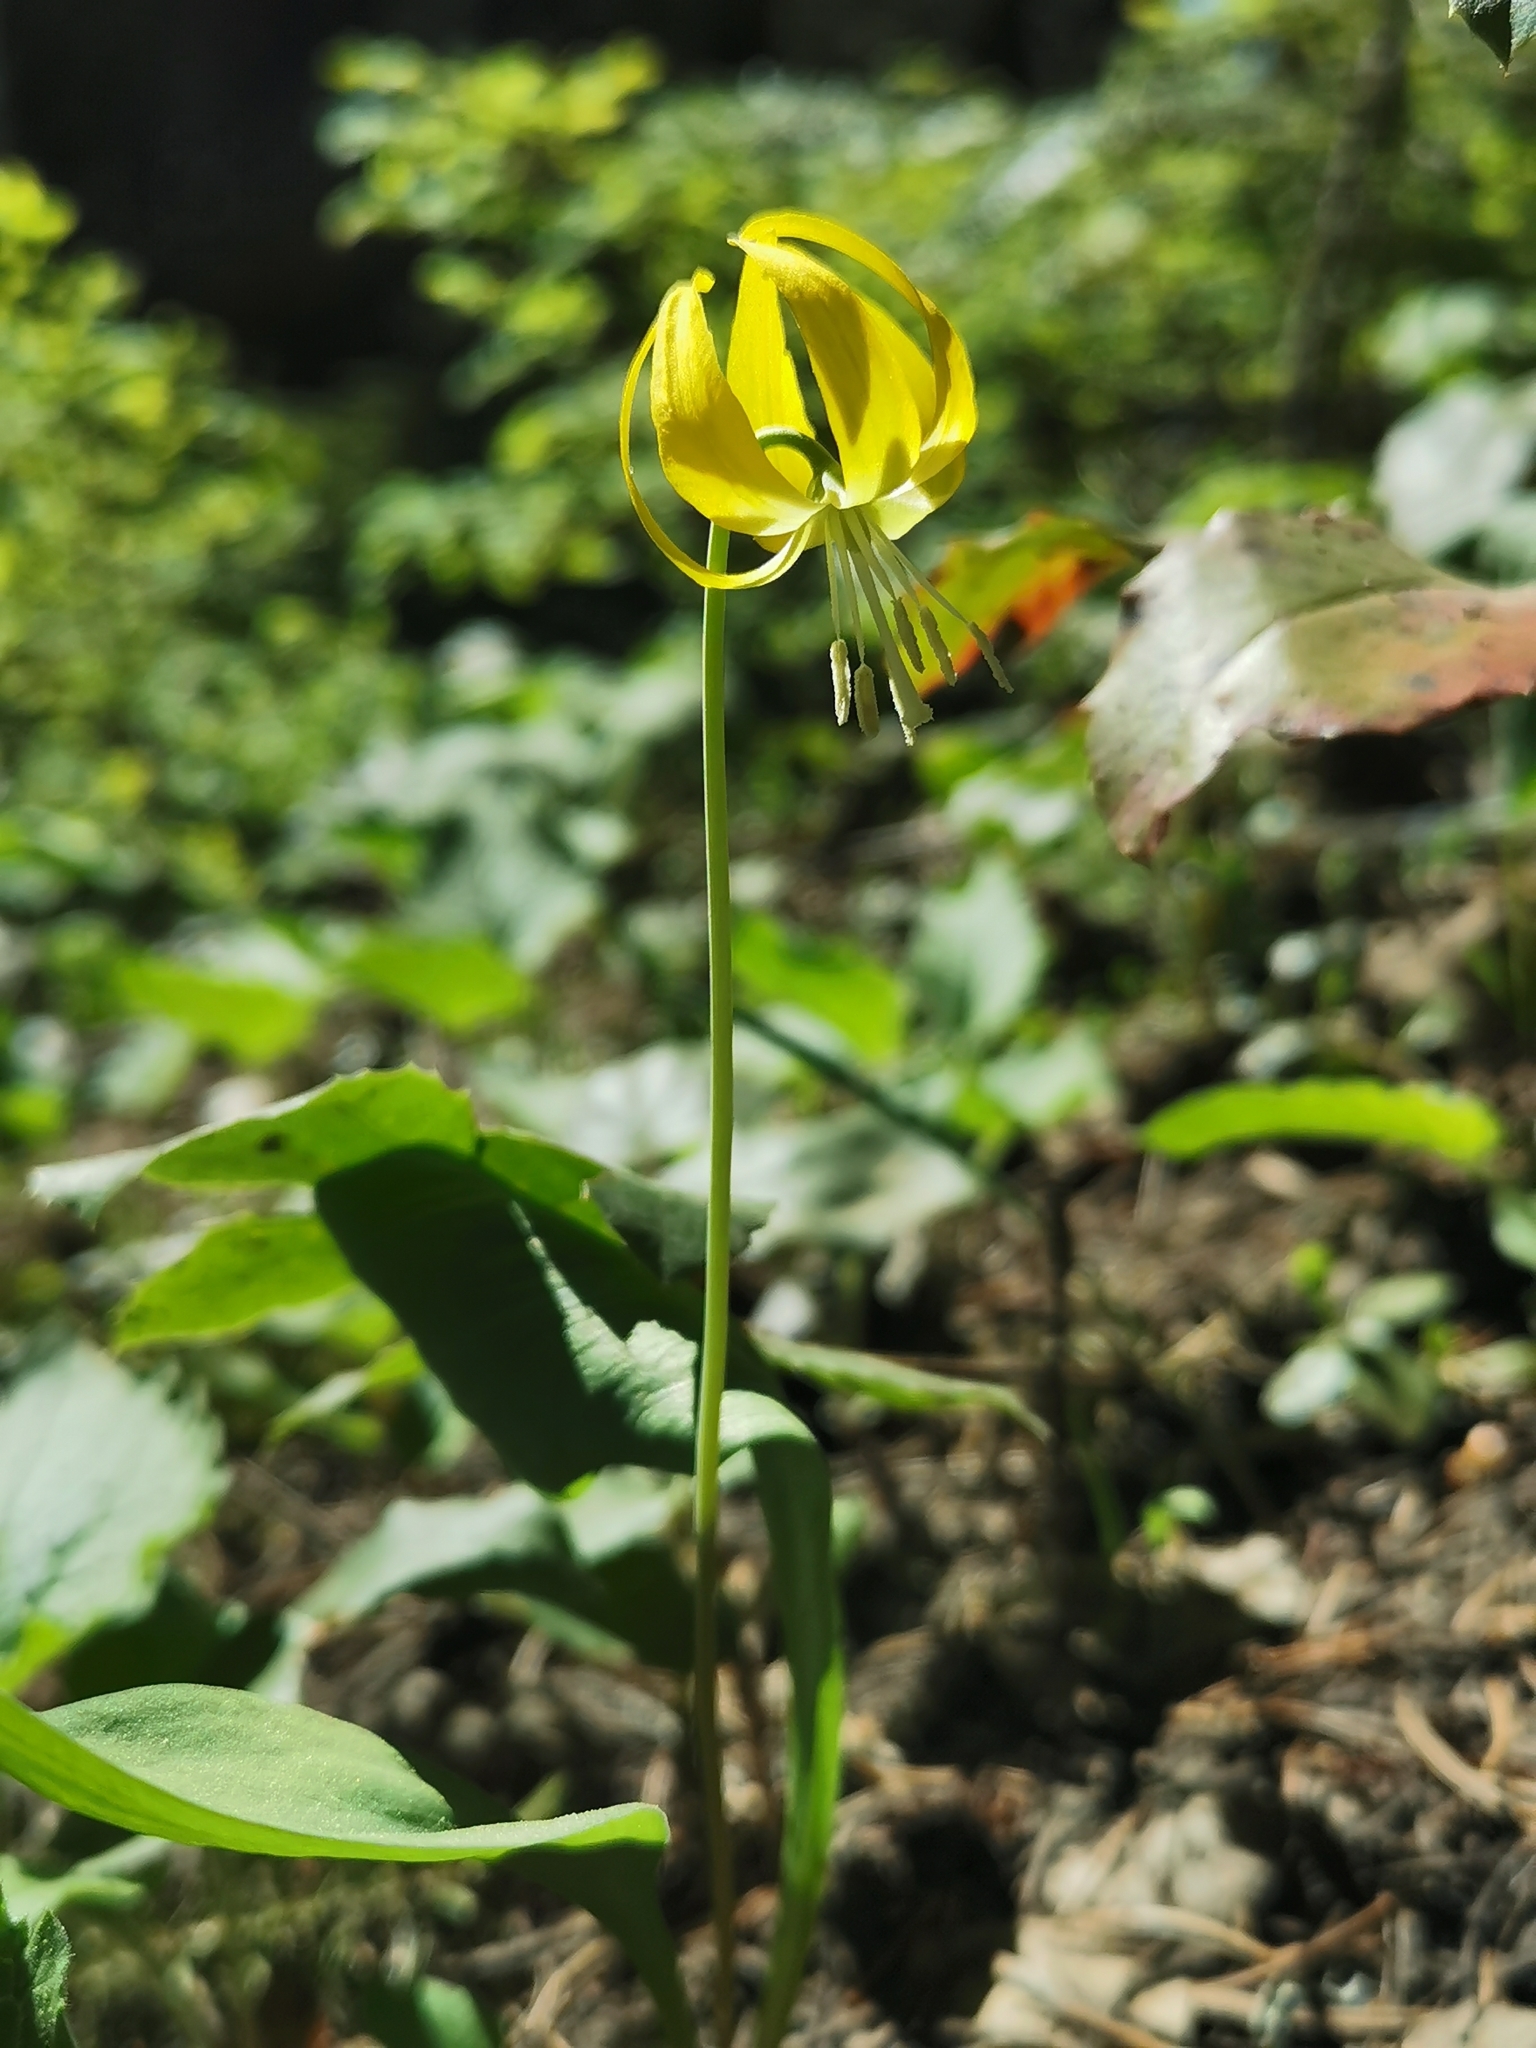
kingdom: Plantae
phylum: Tracheophyta
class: Liliopsida
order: Liliales
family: Liliaceae
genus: Erythronium
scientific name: Erythronium grandiflorum
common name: Avalanche-lily
